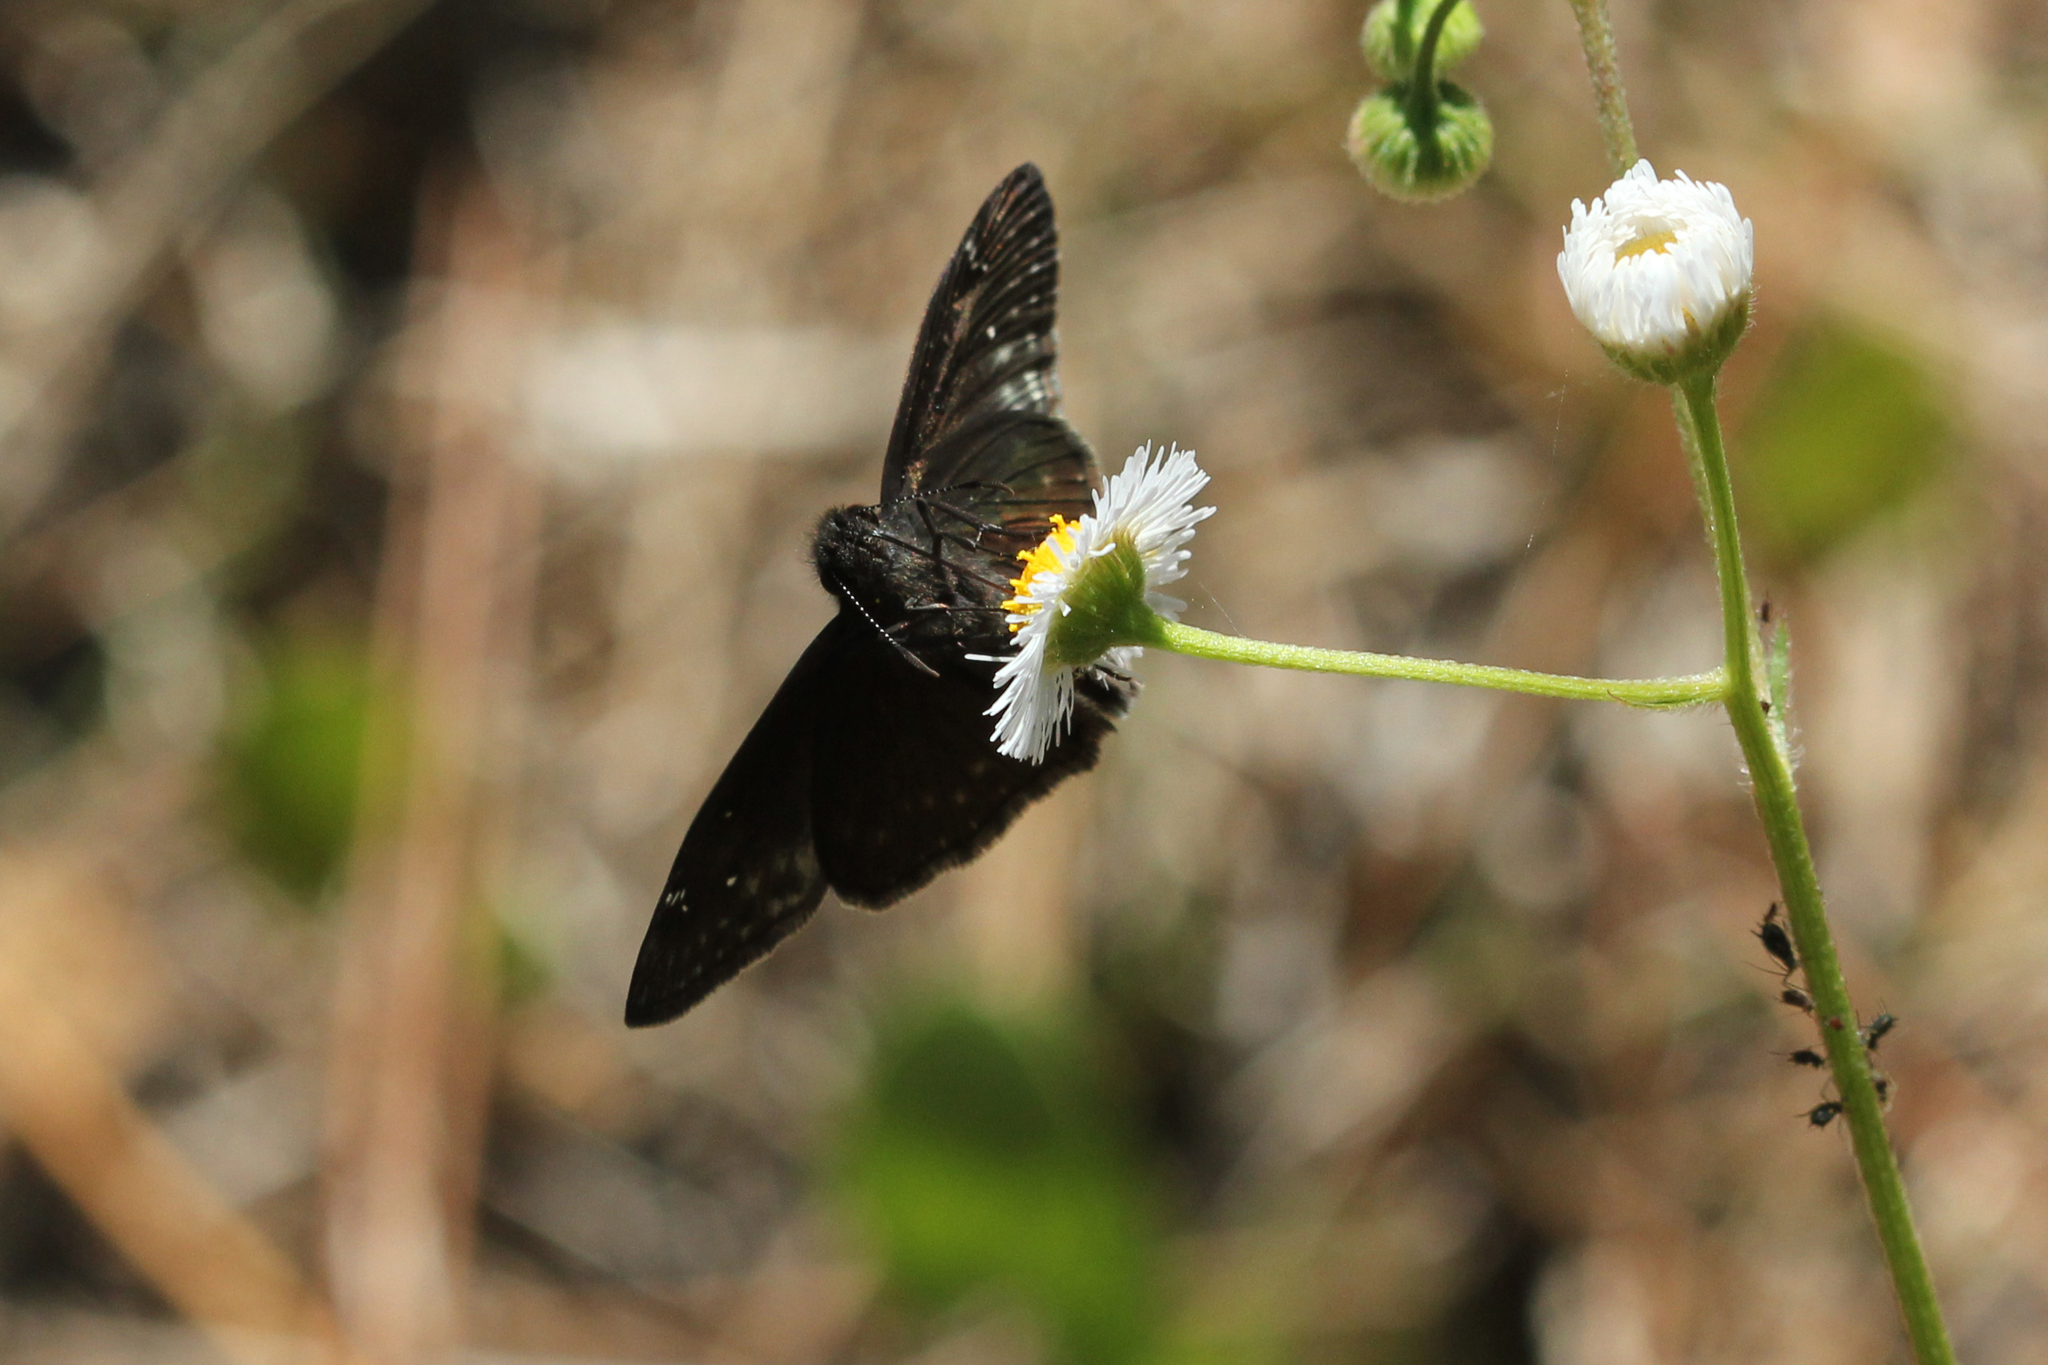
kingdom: Animalia
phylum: Arthropoda
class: Insecta
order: Lepidoptera
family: Hesperiidae
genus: Erynnis
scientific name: Erynnis zarucco
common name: Zarucco duskywing
